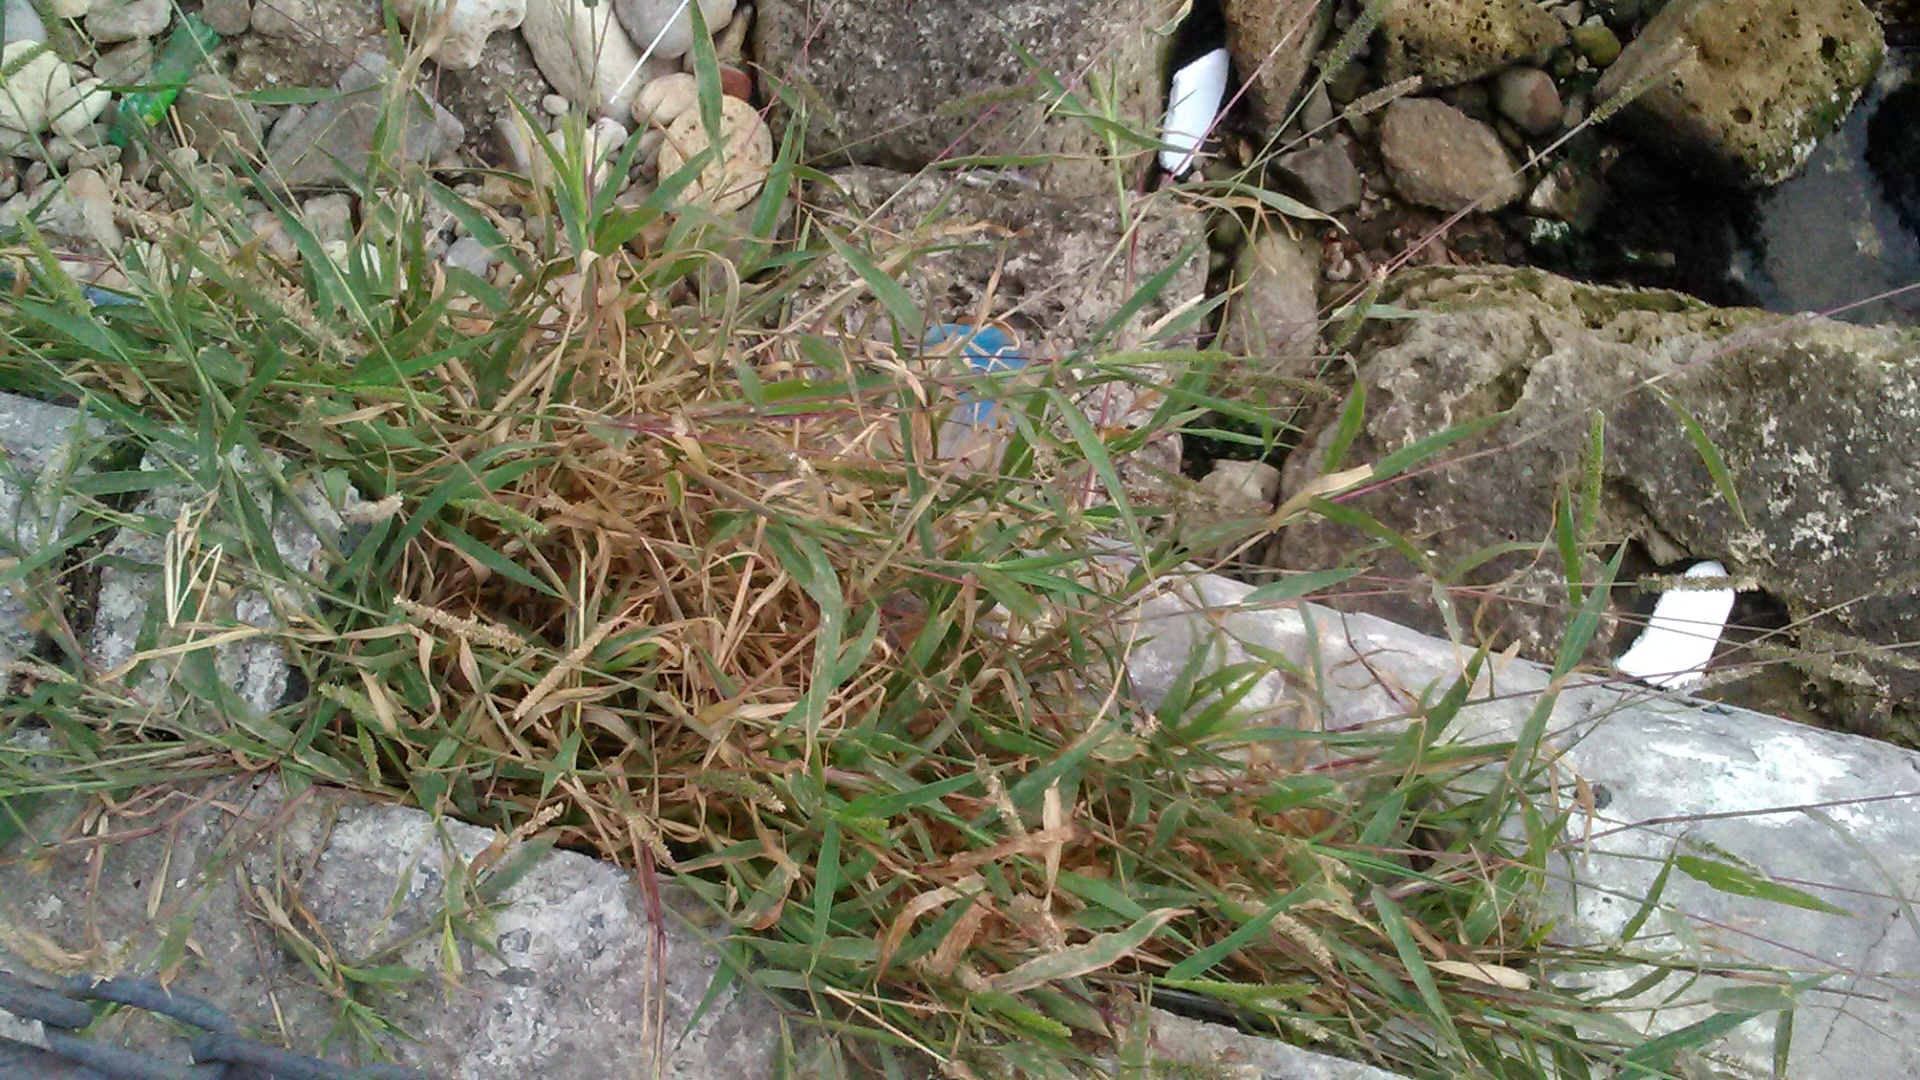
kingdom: Plantae
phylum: Tracheophyta
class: Liliopsida
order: Poales
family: Poaceae
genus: Setaria
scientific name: Setaria viridis
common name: Green bristlegrass
